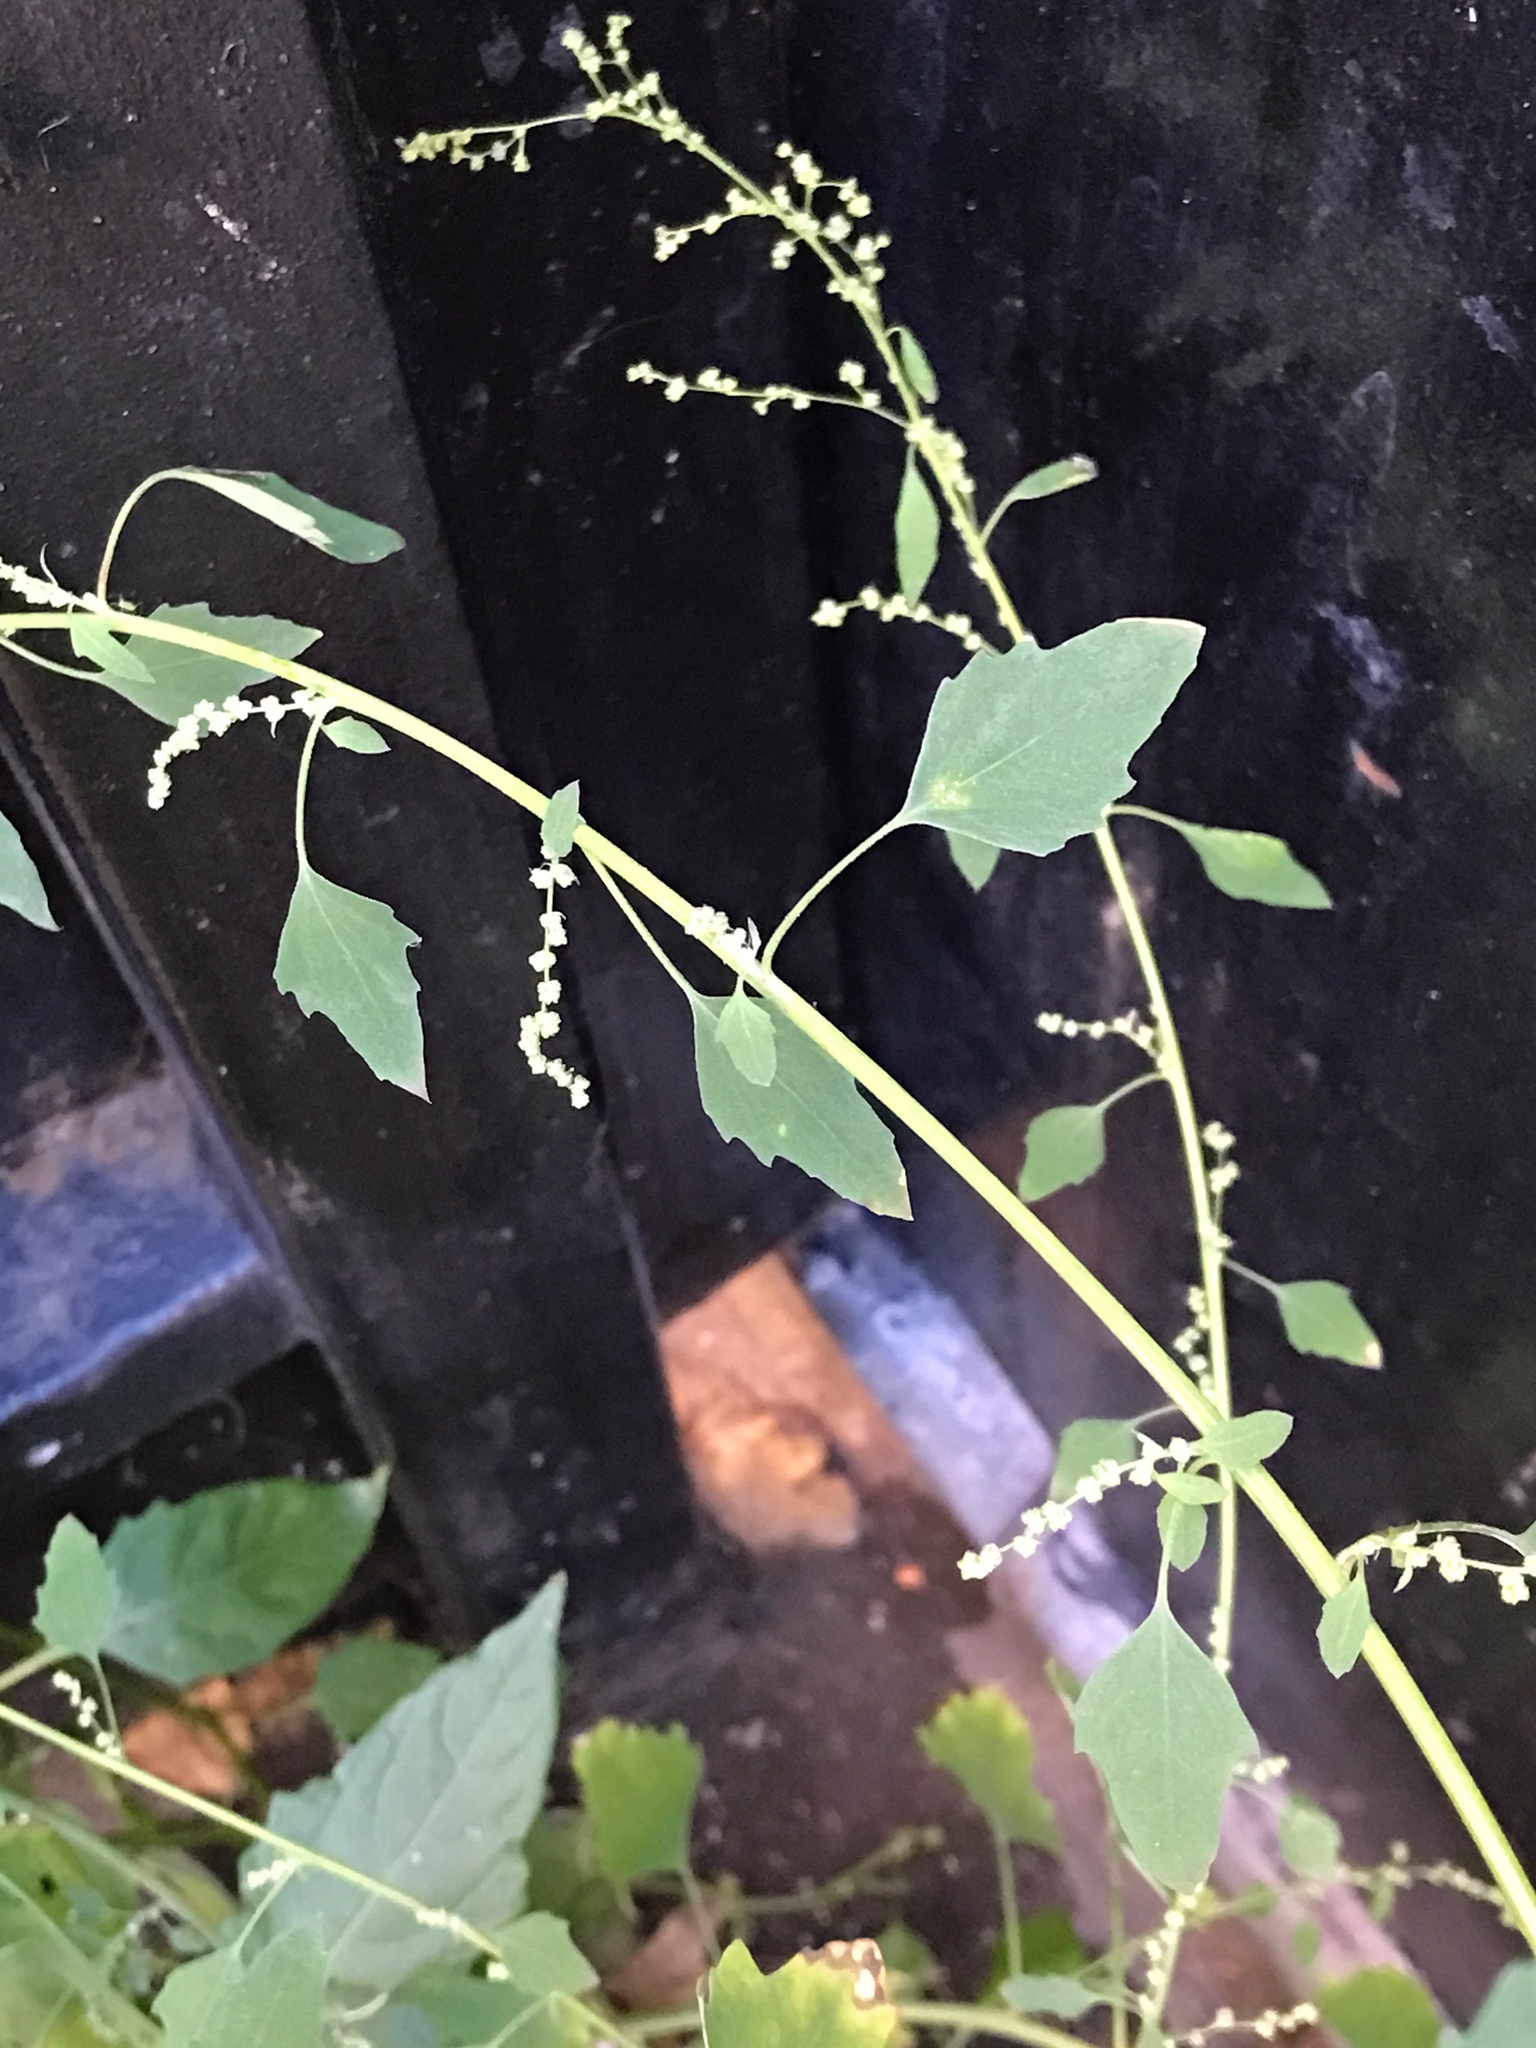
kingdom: Plantae
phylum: Tracheophyta
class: Magnoliopsida
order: Caryophyllales
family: Amaranthaceae
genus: Chenopodium
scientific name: Chenopodium album
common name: Fat-hen
